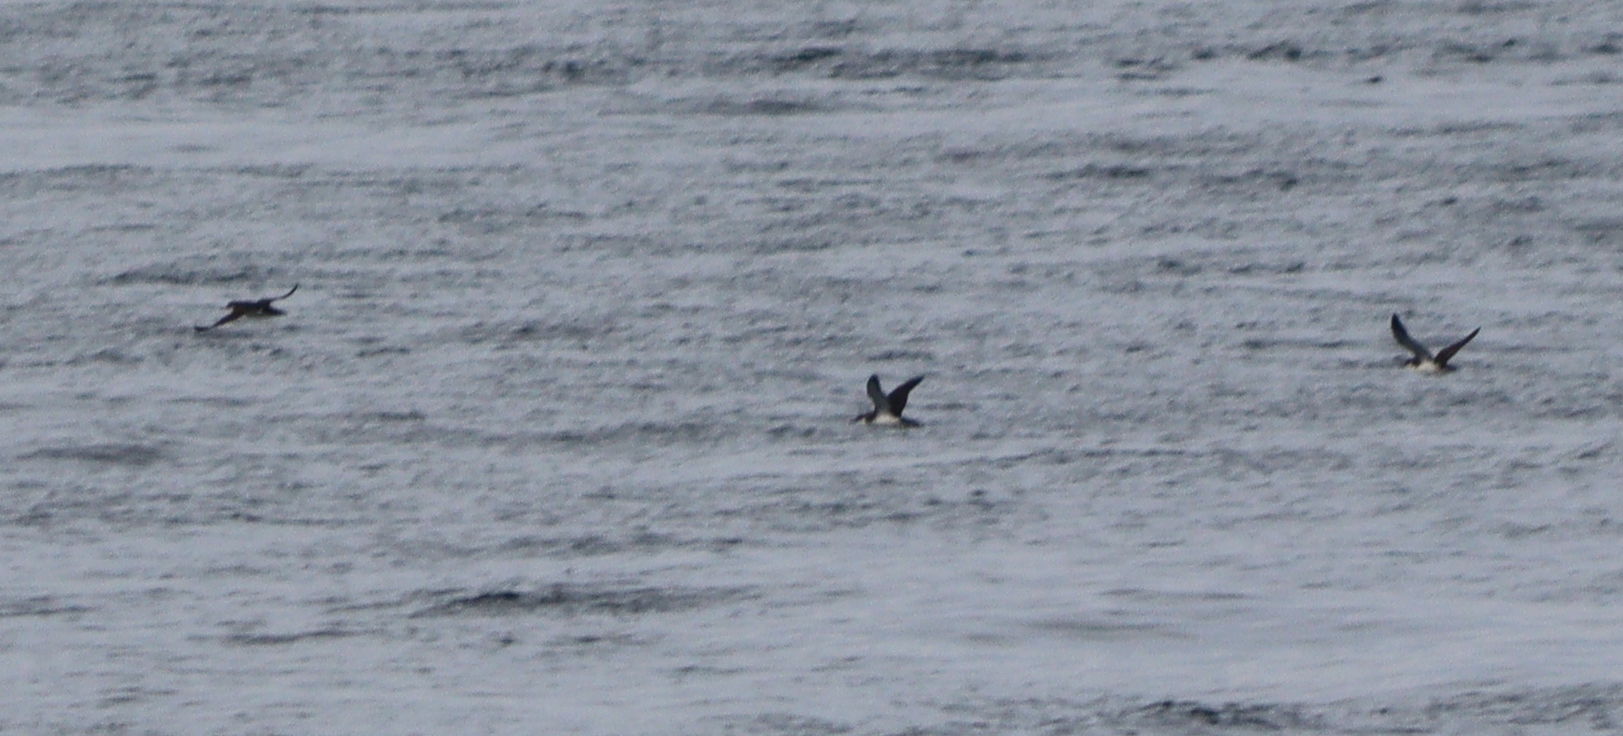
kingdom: Animalia
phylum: Chordata
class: Aves
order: Procellariiformes
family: Procellariidae
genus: Puffinus
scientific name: Puffinus puffinus
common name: Manx shearwater
